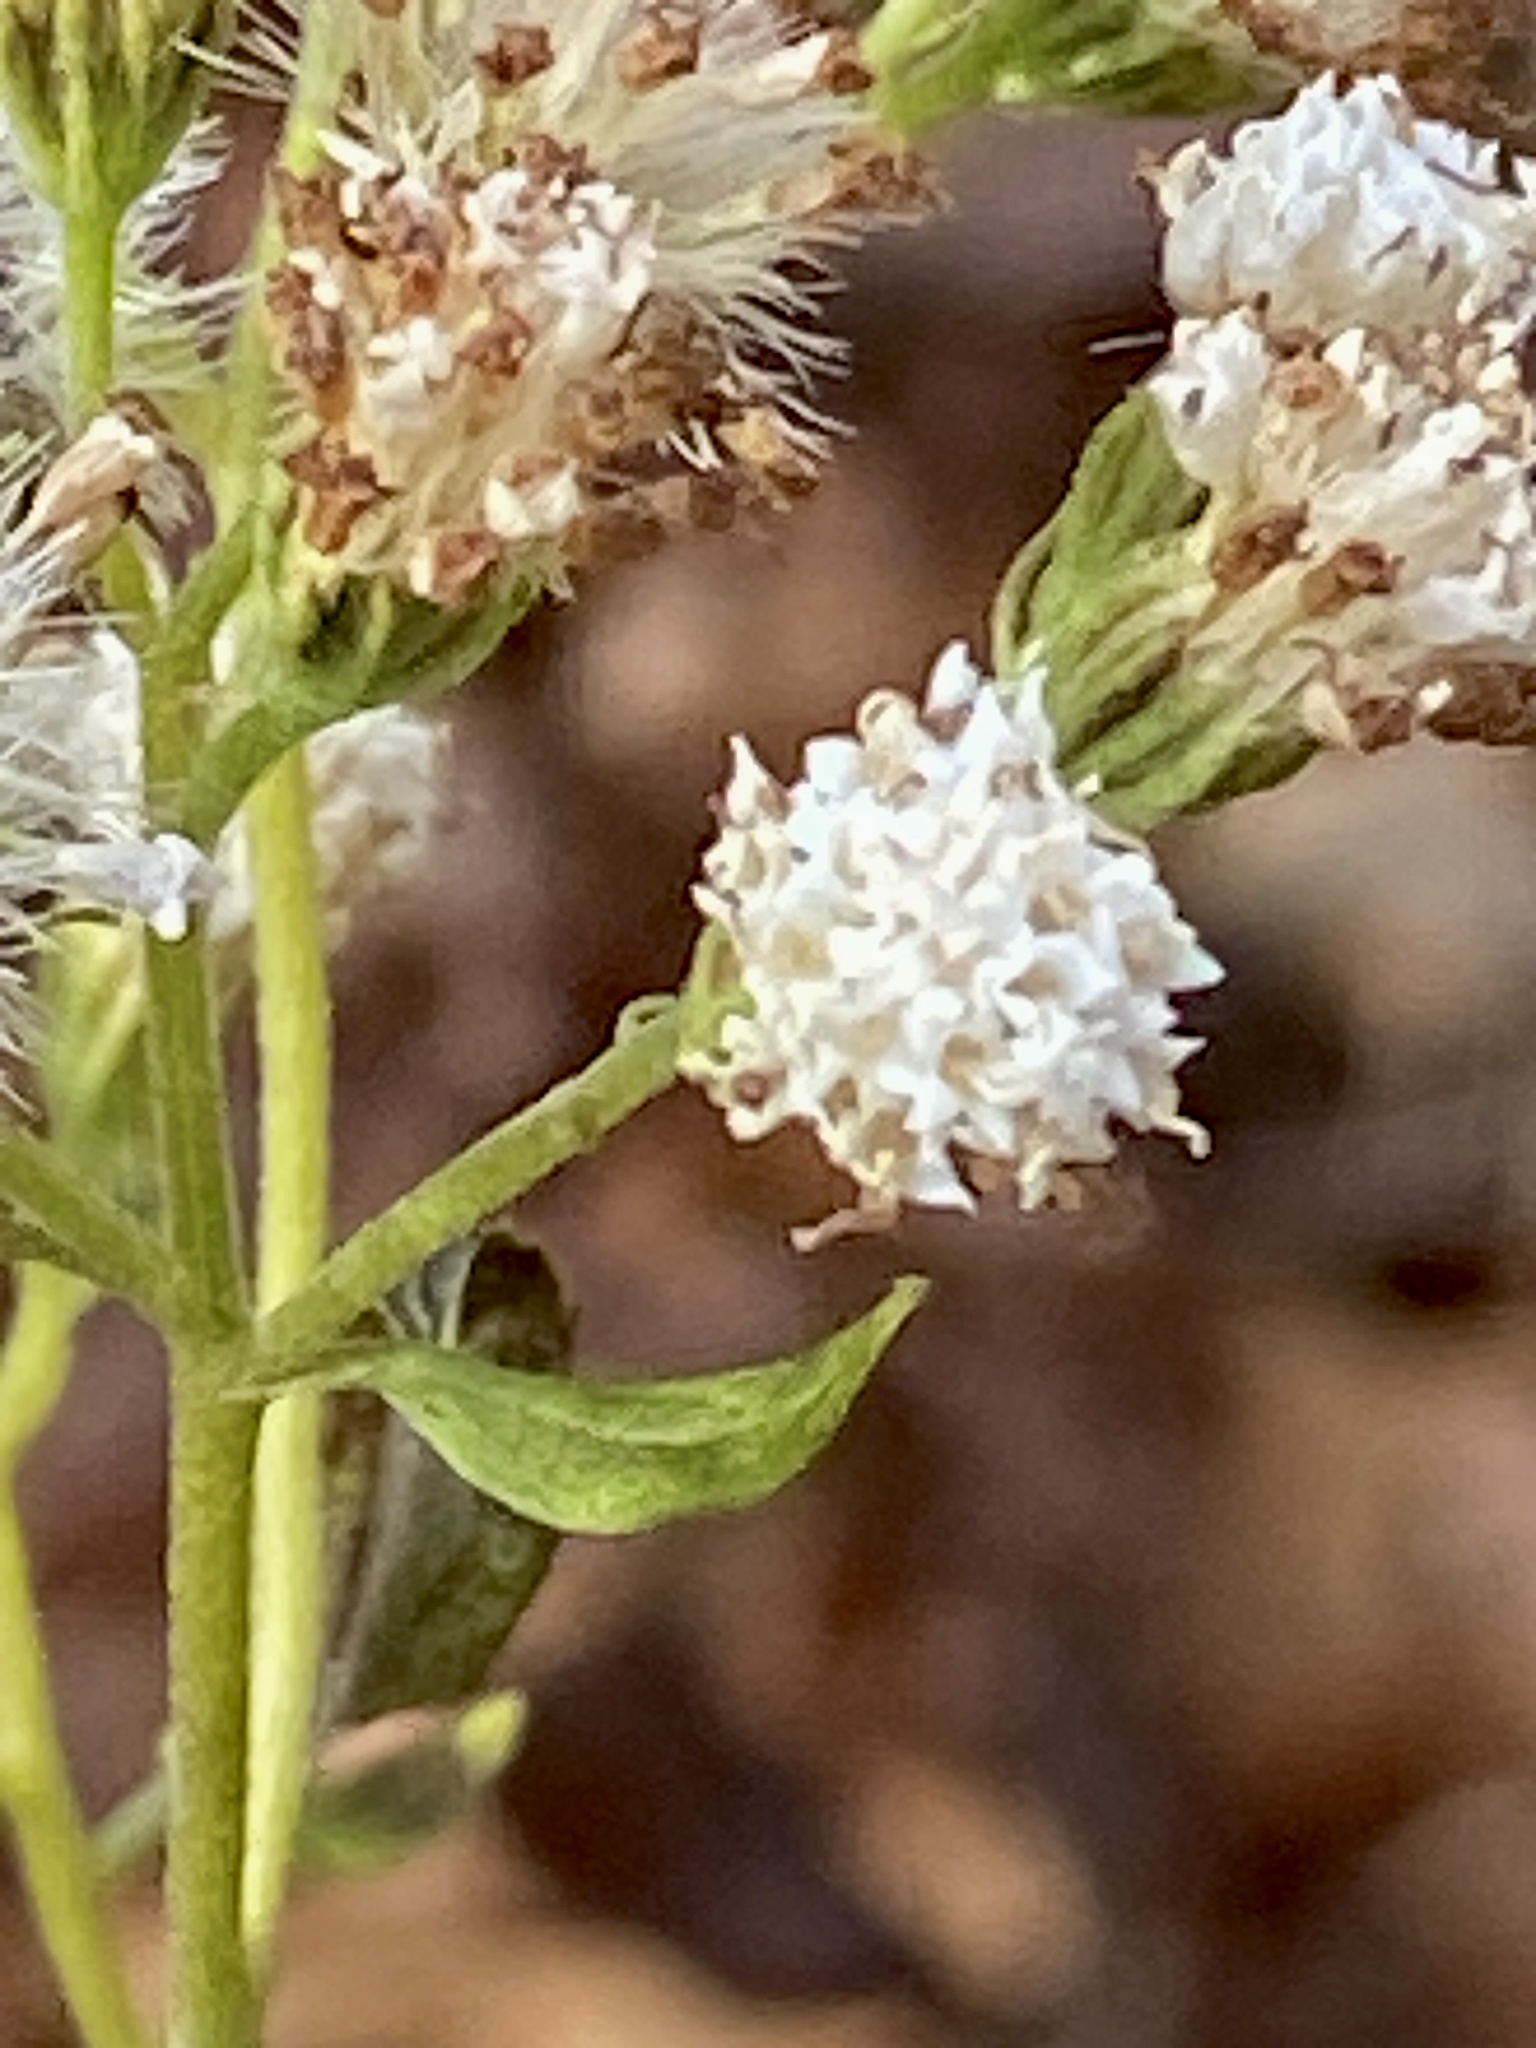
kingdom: Plantae
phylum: Tracheophyta
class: Magnoliopsida
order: Asterales
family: Asteraceae
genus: Ageratina
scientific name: Ageratina altissima
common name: White snakeroot
